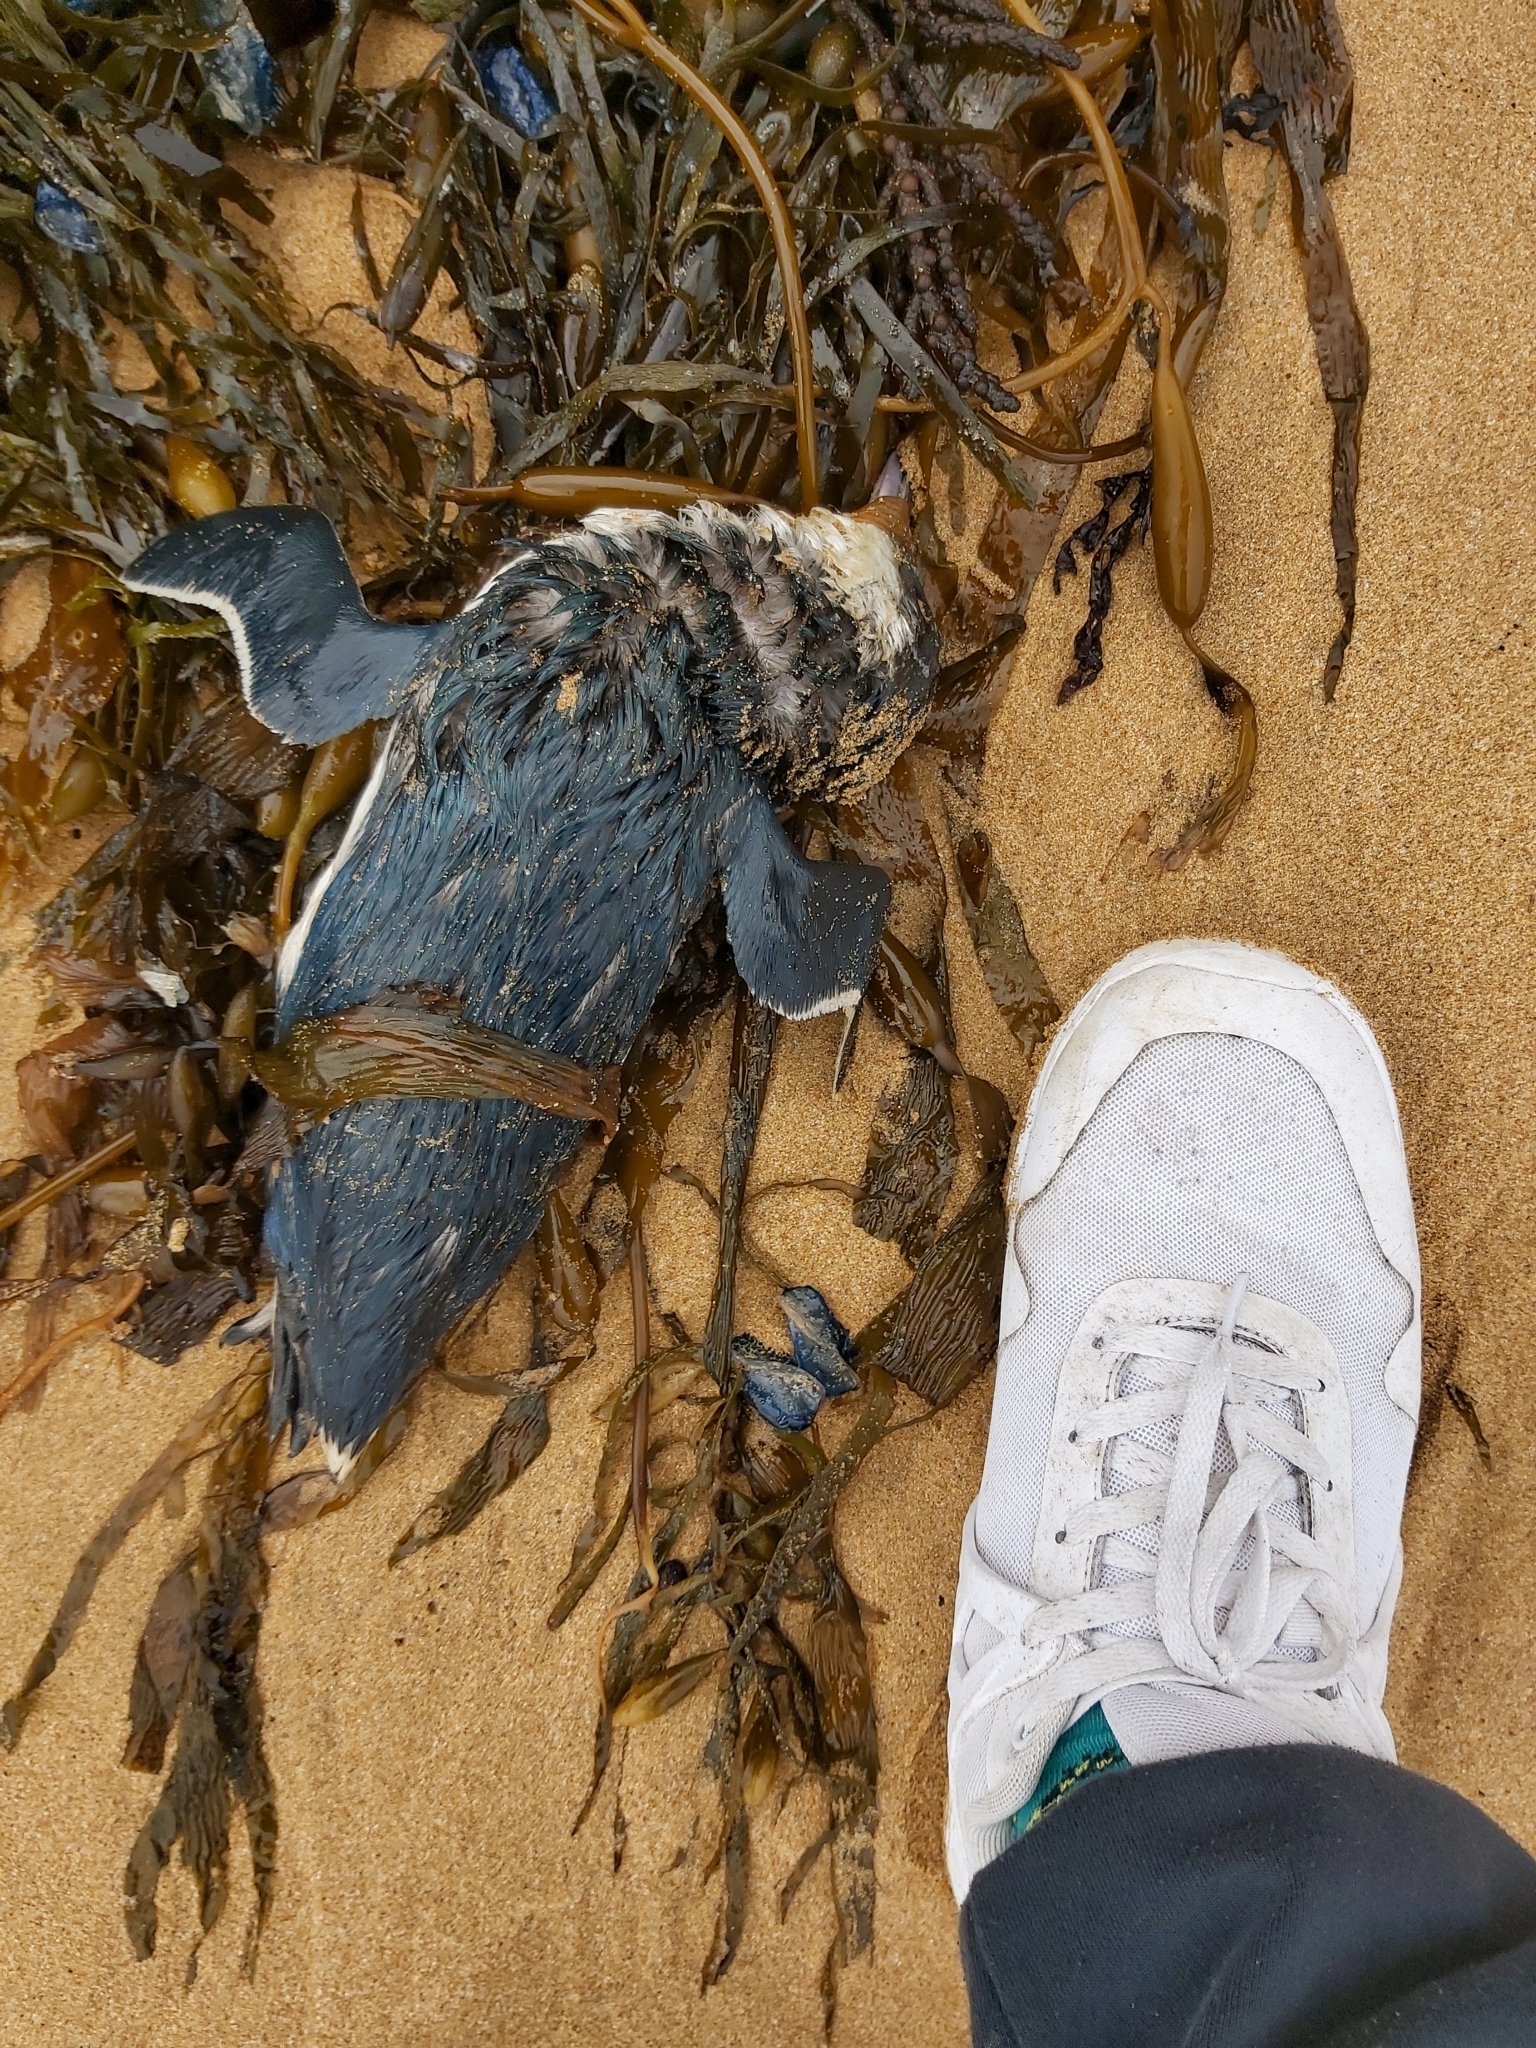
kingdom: Animalia
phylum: Chordata
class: Aves
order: Sphenisciformes
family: Spheniscidae
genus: Eudyptula
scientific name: Eudyptula minor
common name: Little penguin
